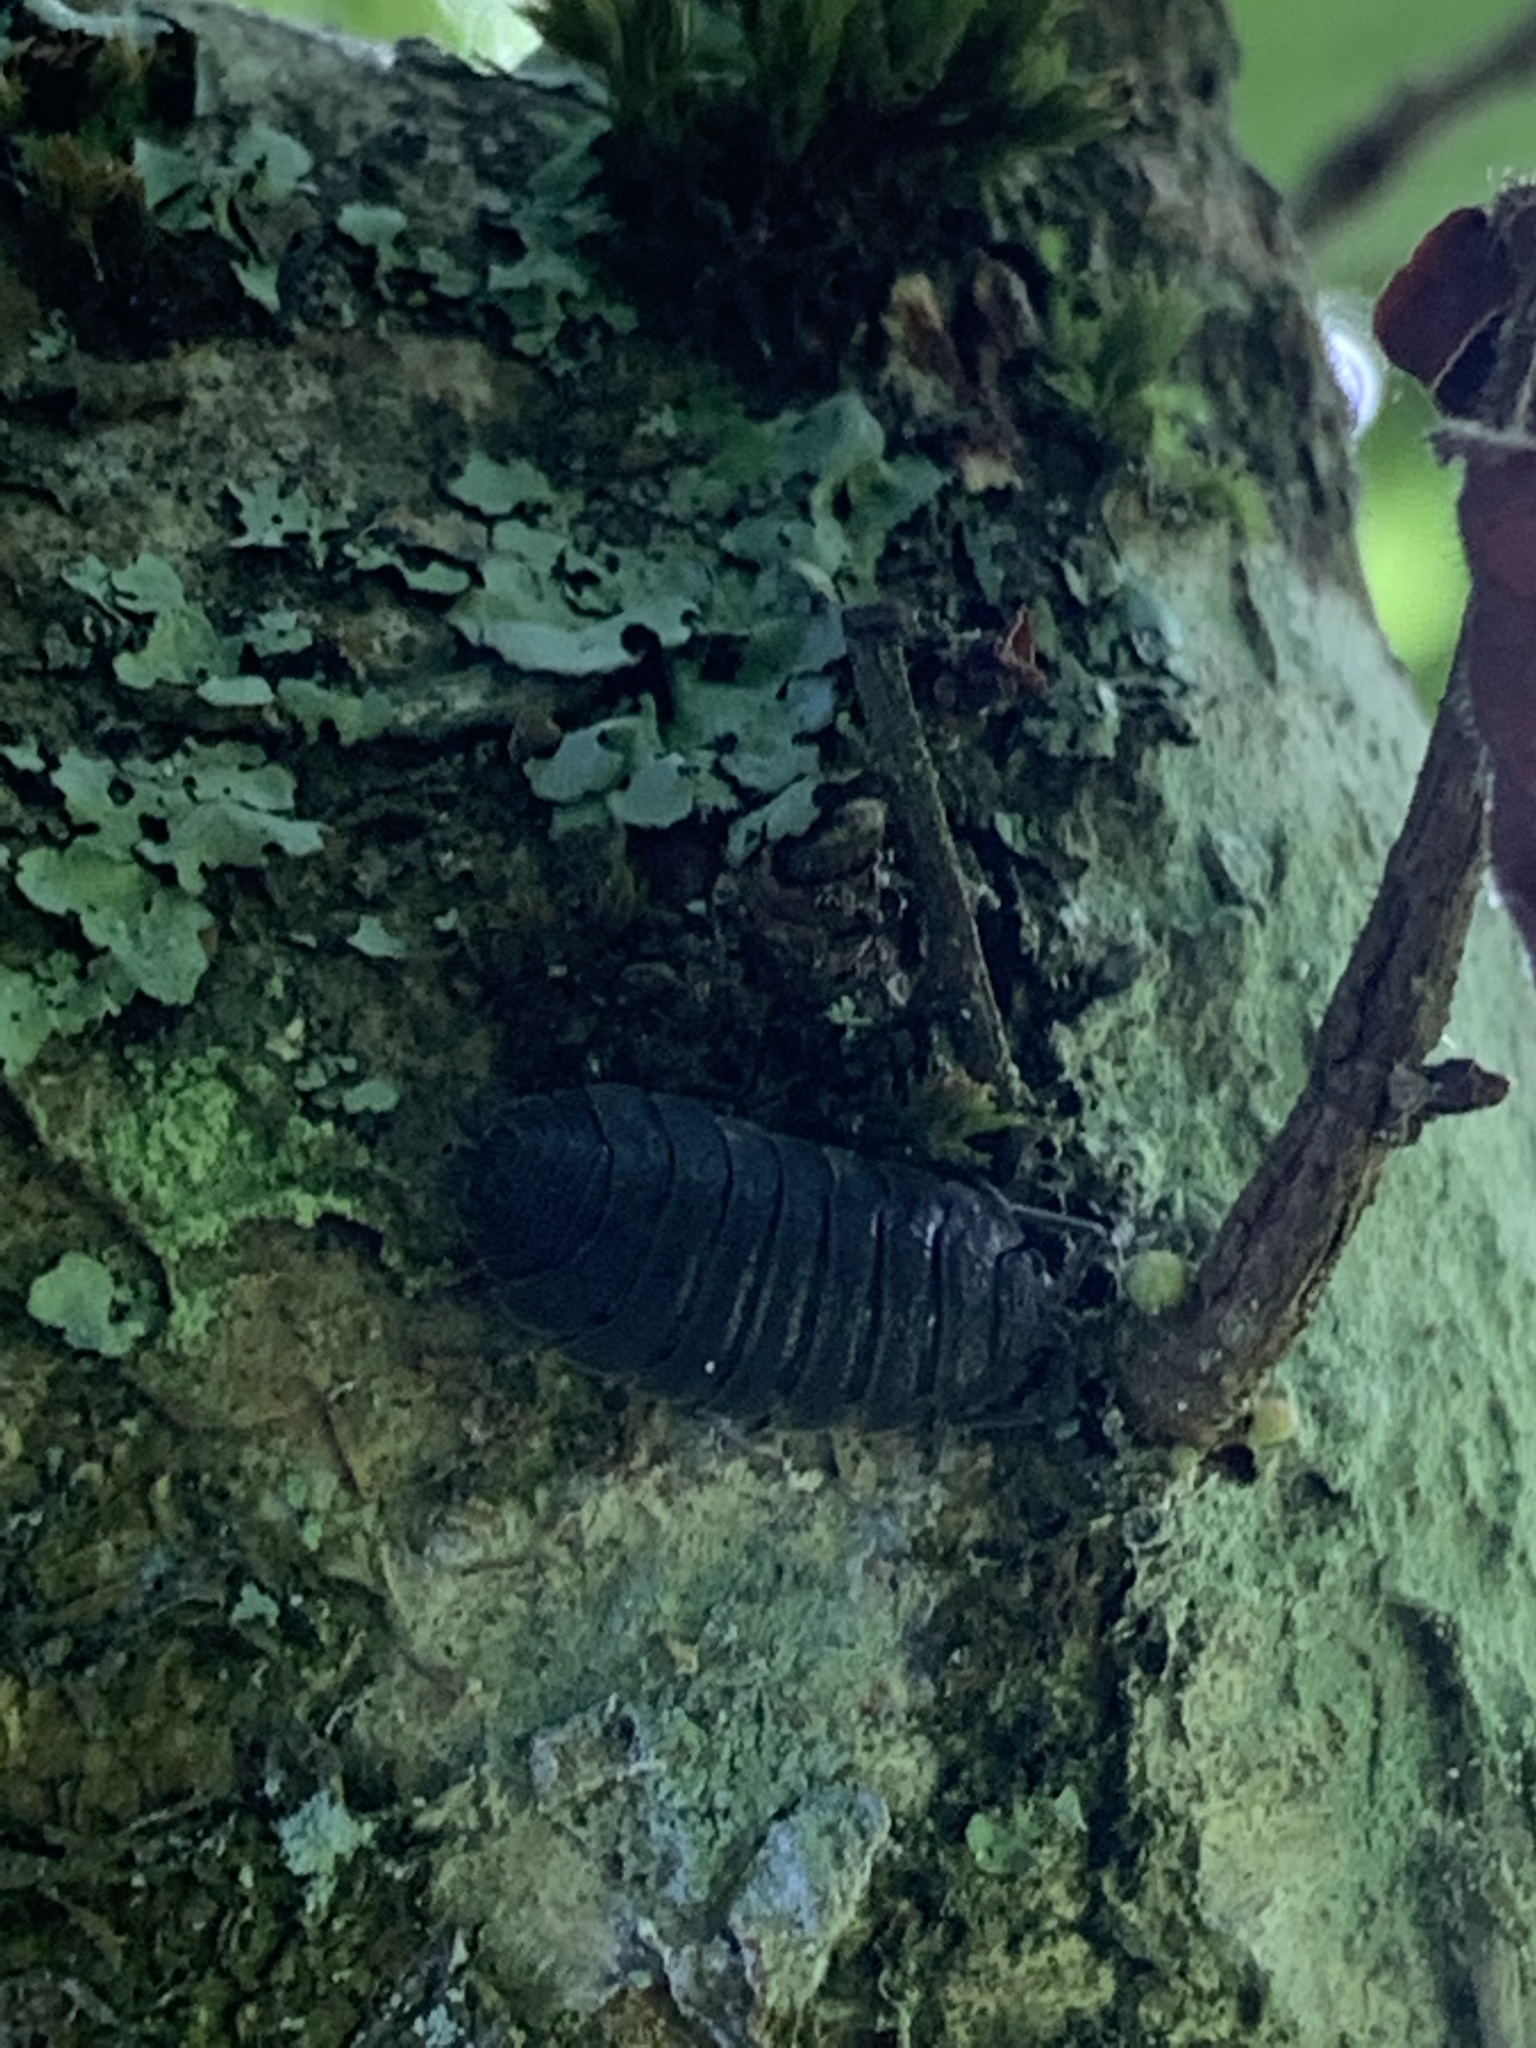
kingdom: Animalia
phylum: Arthropoda
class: Malacostraca
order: Isopoda
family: Porcellionidae
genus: Porcellio
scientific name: Porcellio scaber
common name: Common rough woodlouse
